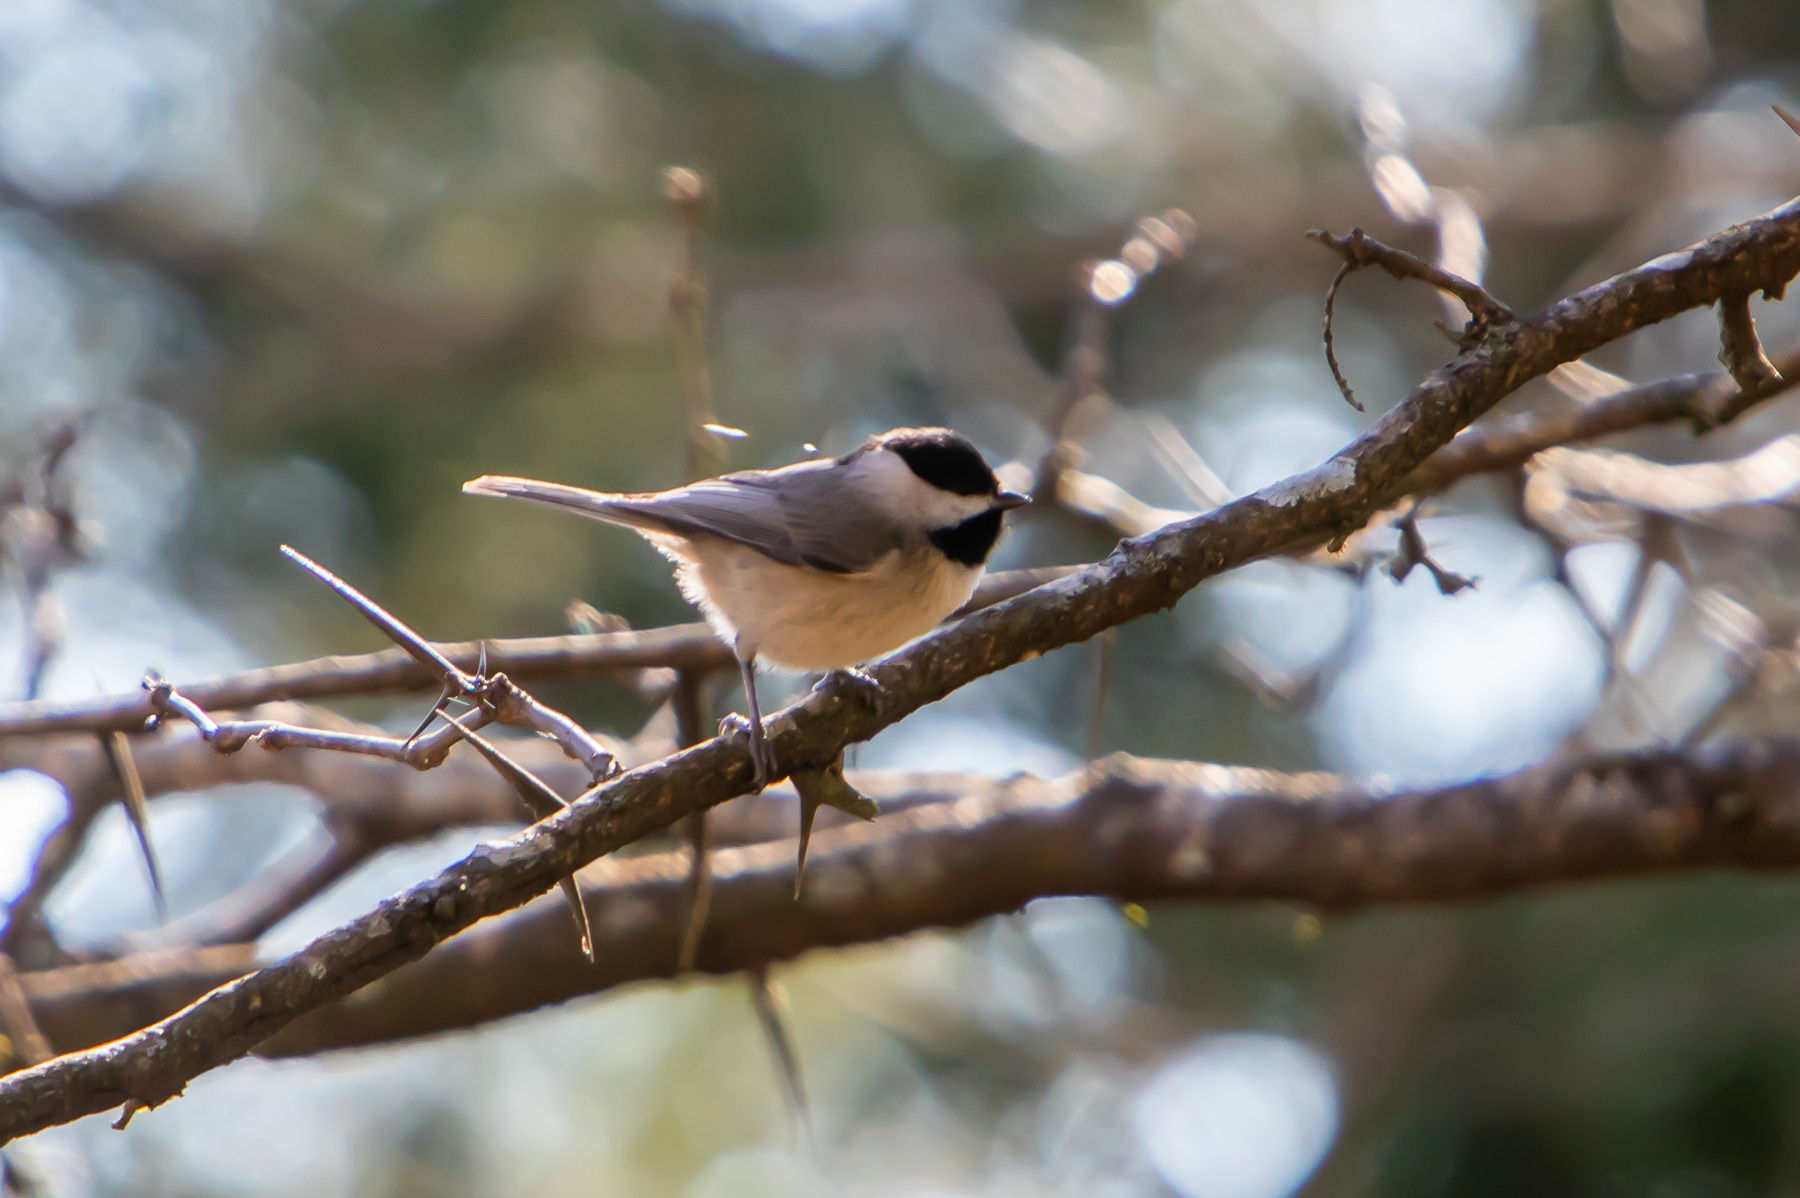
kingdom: Animalia
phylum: Chordata
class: Aves
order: Passeriformes
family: Paridae
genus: Poecile
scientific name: Poecile carolinensis
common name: Carolina chickadee
